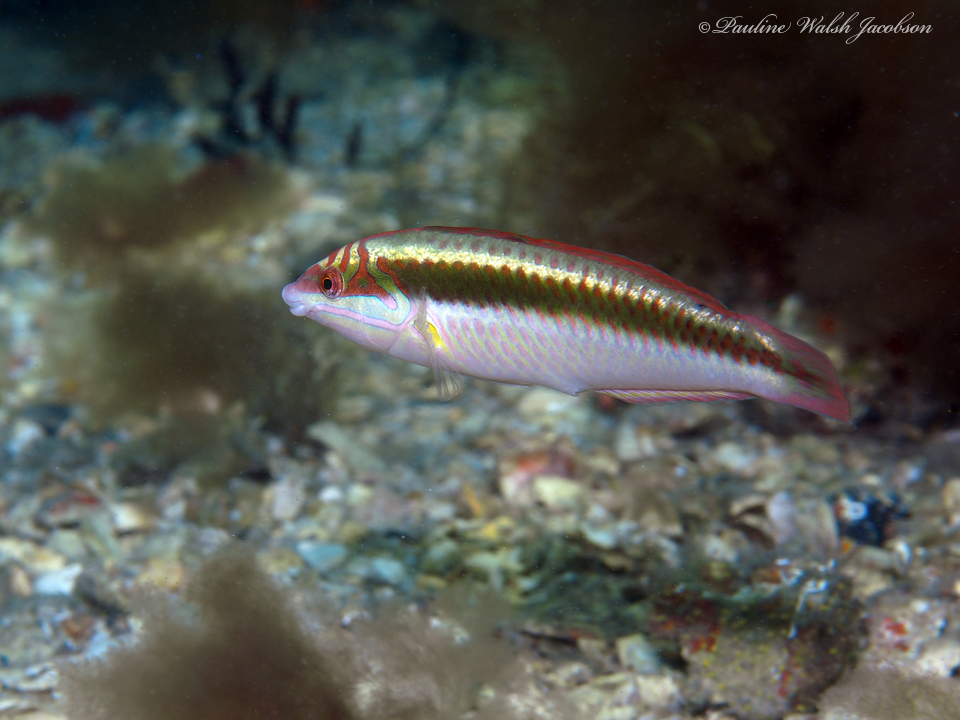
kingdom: Animalia
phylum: Chordata
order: Perciformes
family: Labridae
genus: Halichoeres
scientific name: Halichoeres maculipinna
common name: Clown wrasse
